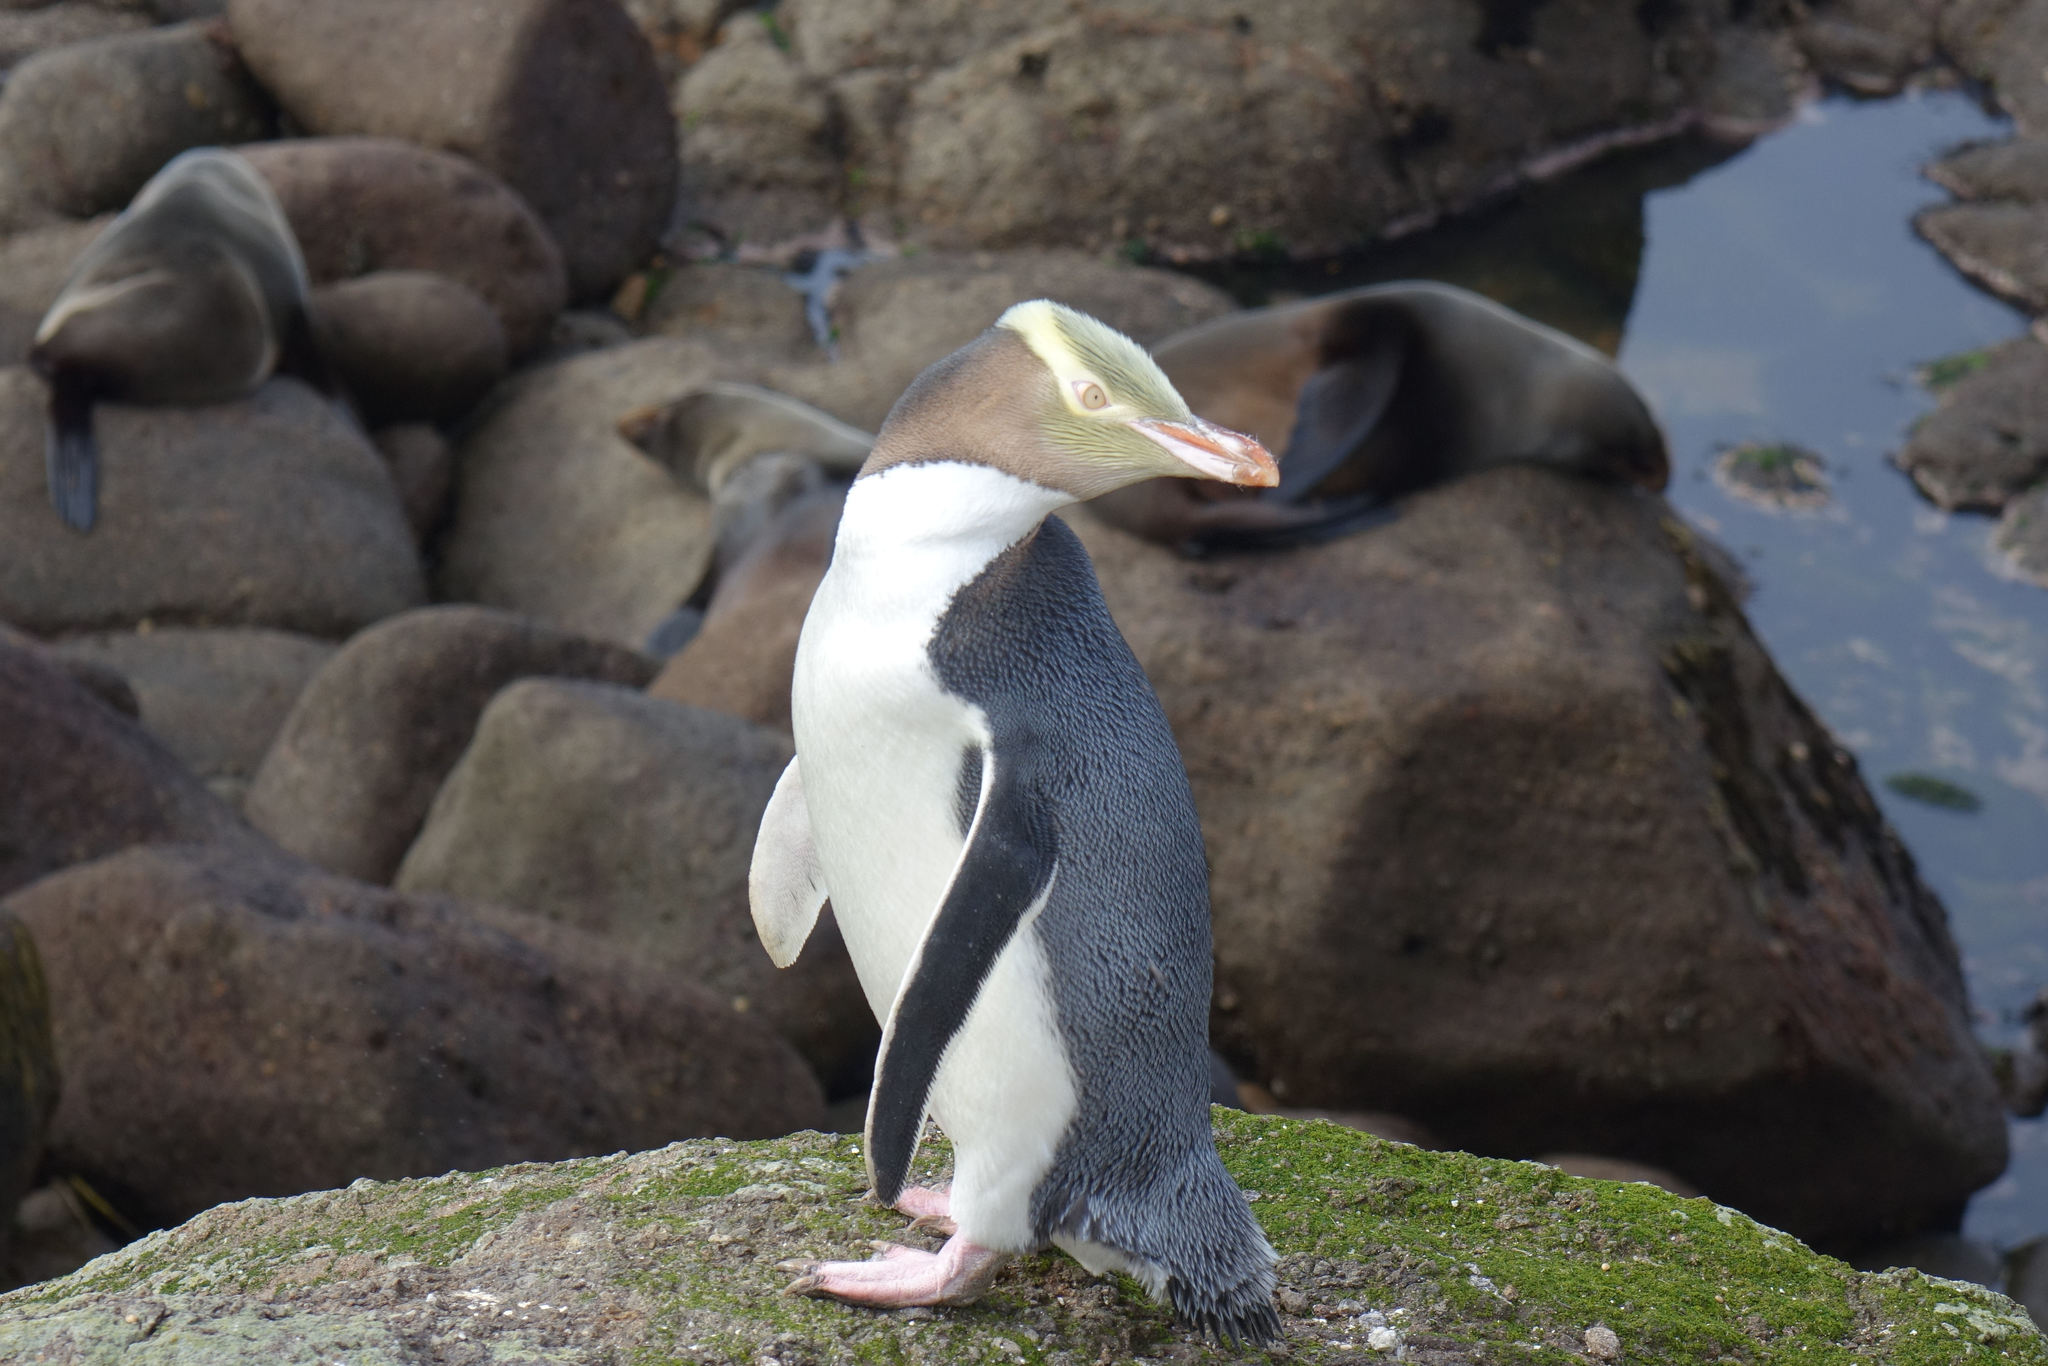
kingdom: Animalia
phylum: Chordata
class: Aves
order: Sphenisciformes
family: Spheniscidae
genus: Megadyptes
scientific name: Megadyptes antipodes
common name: Yellow-eyed penguin
